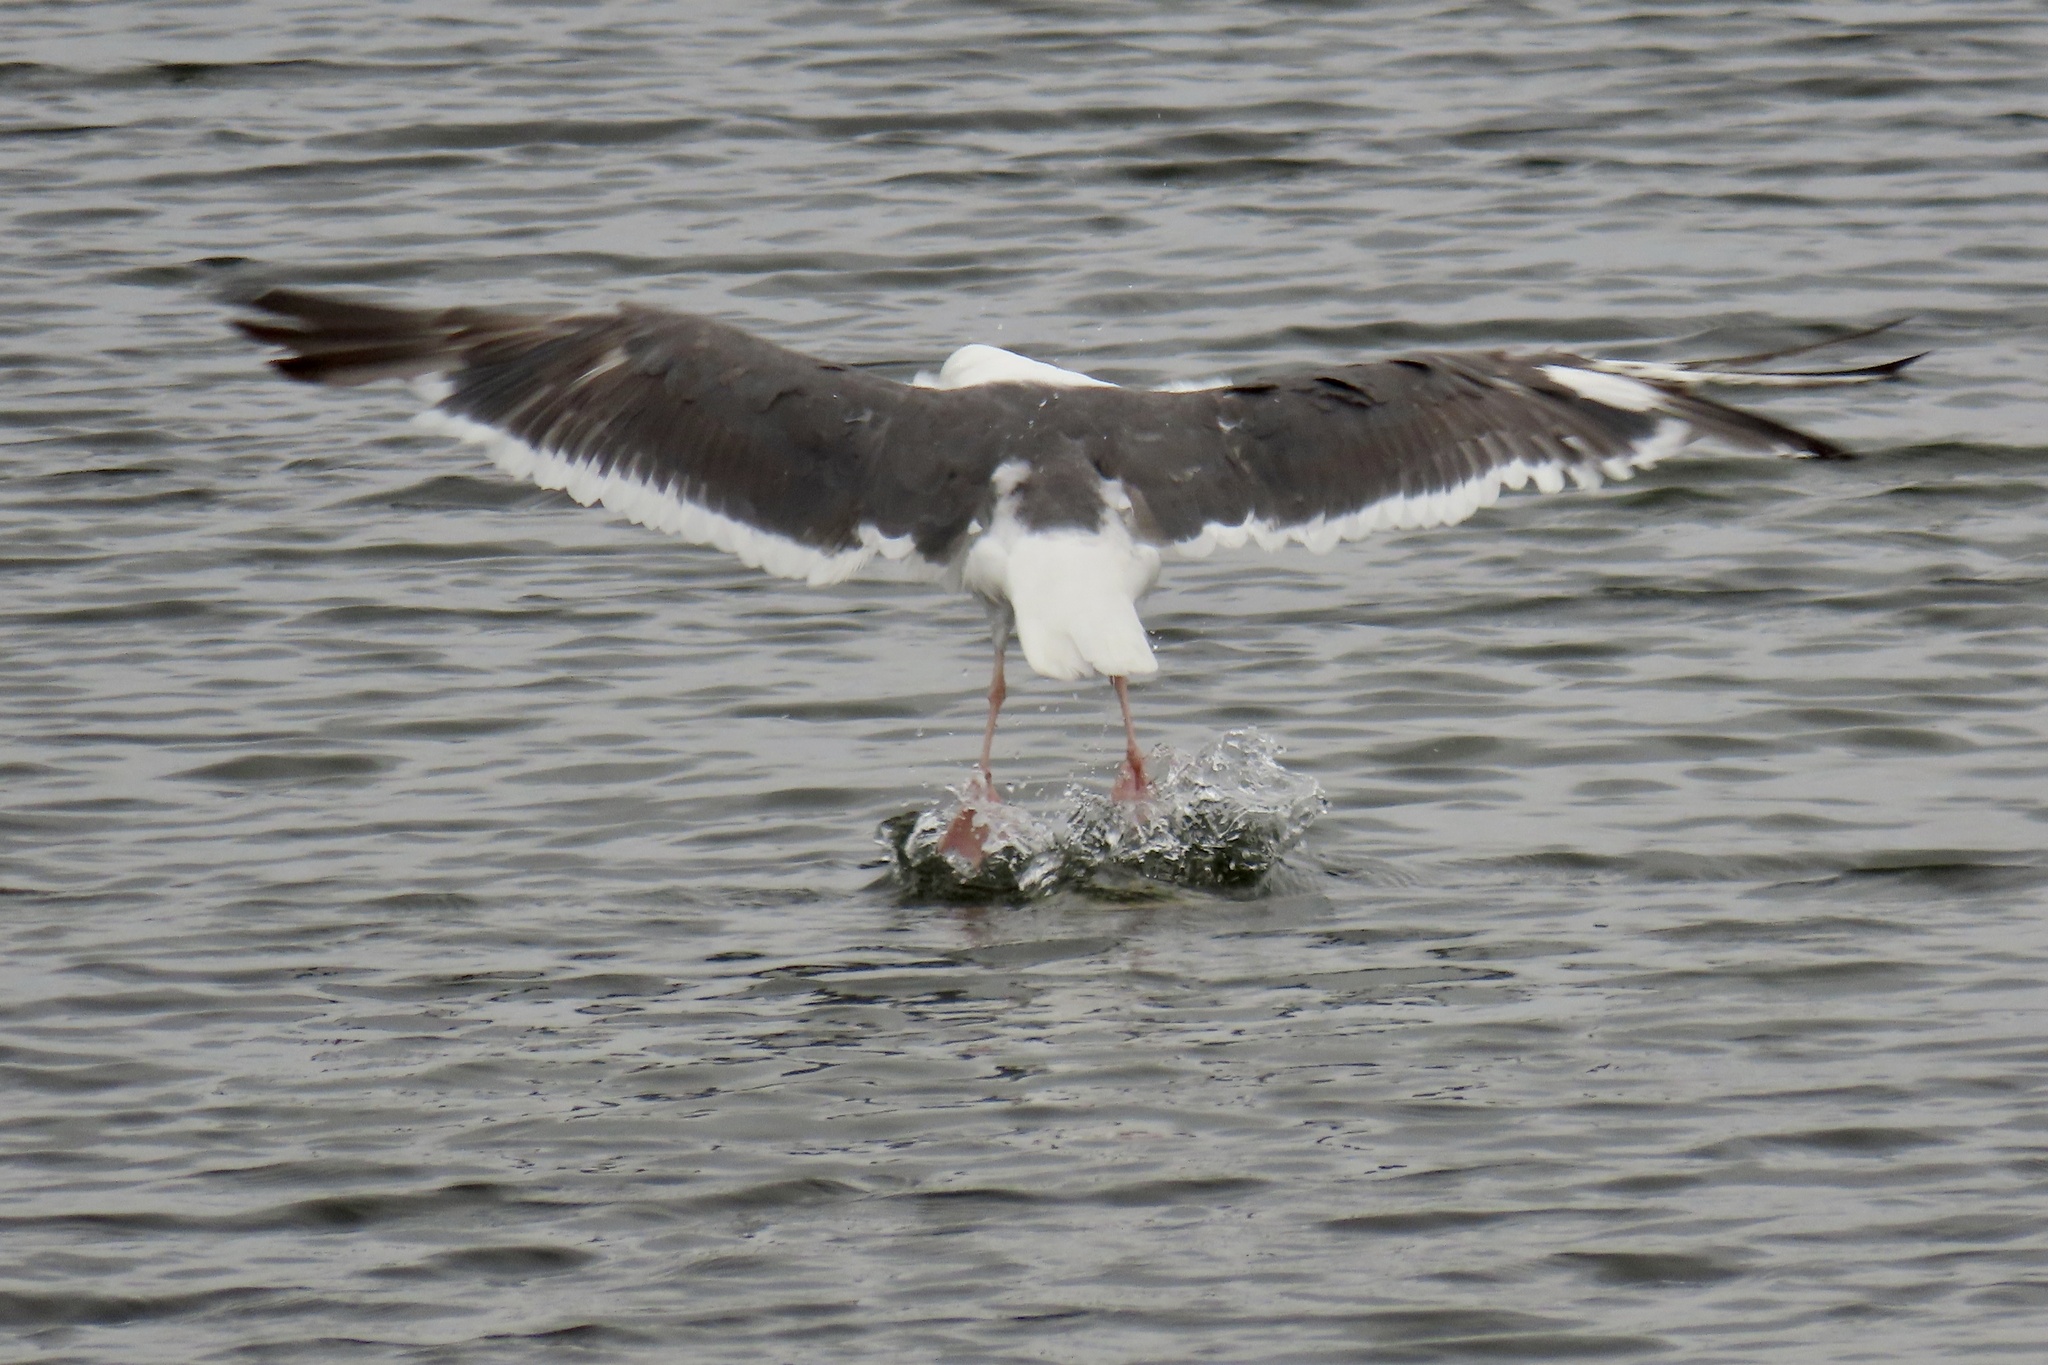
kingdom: Animalia
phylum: Chordata
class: Aves
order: Charadriiformes
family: Laridae
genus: Larus
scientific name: Larus occidentalis
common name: Western gull
